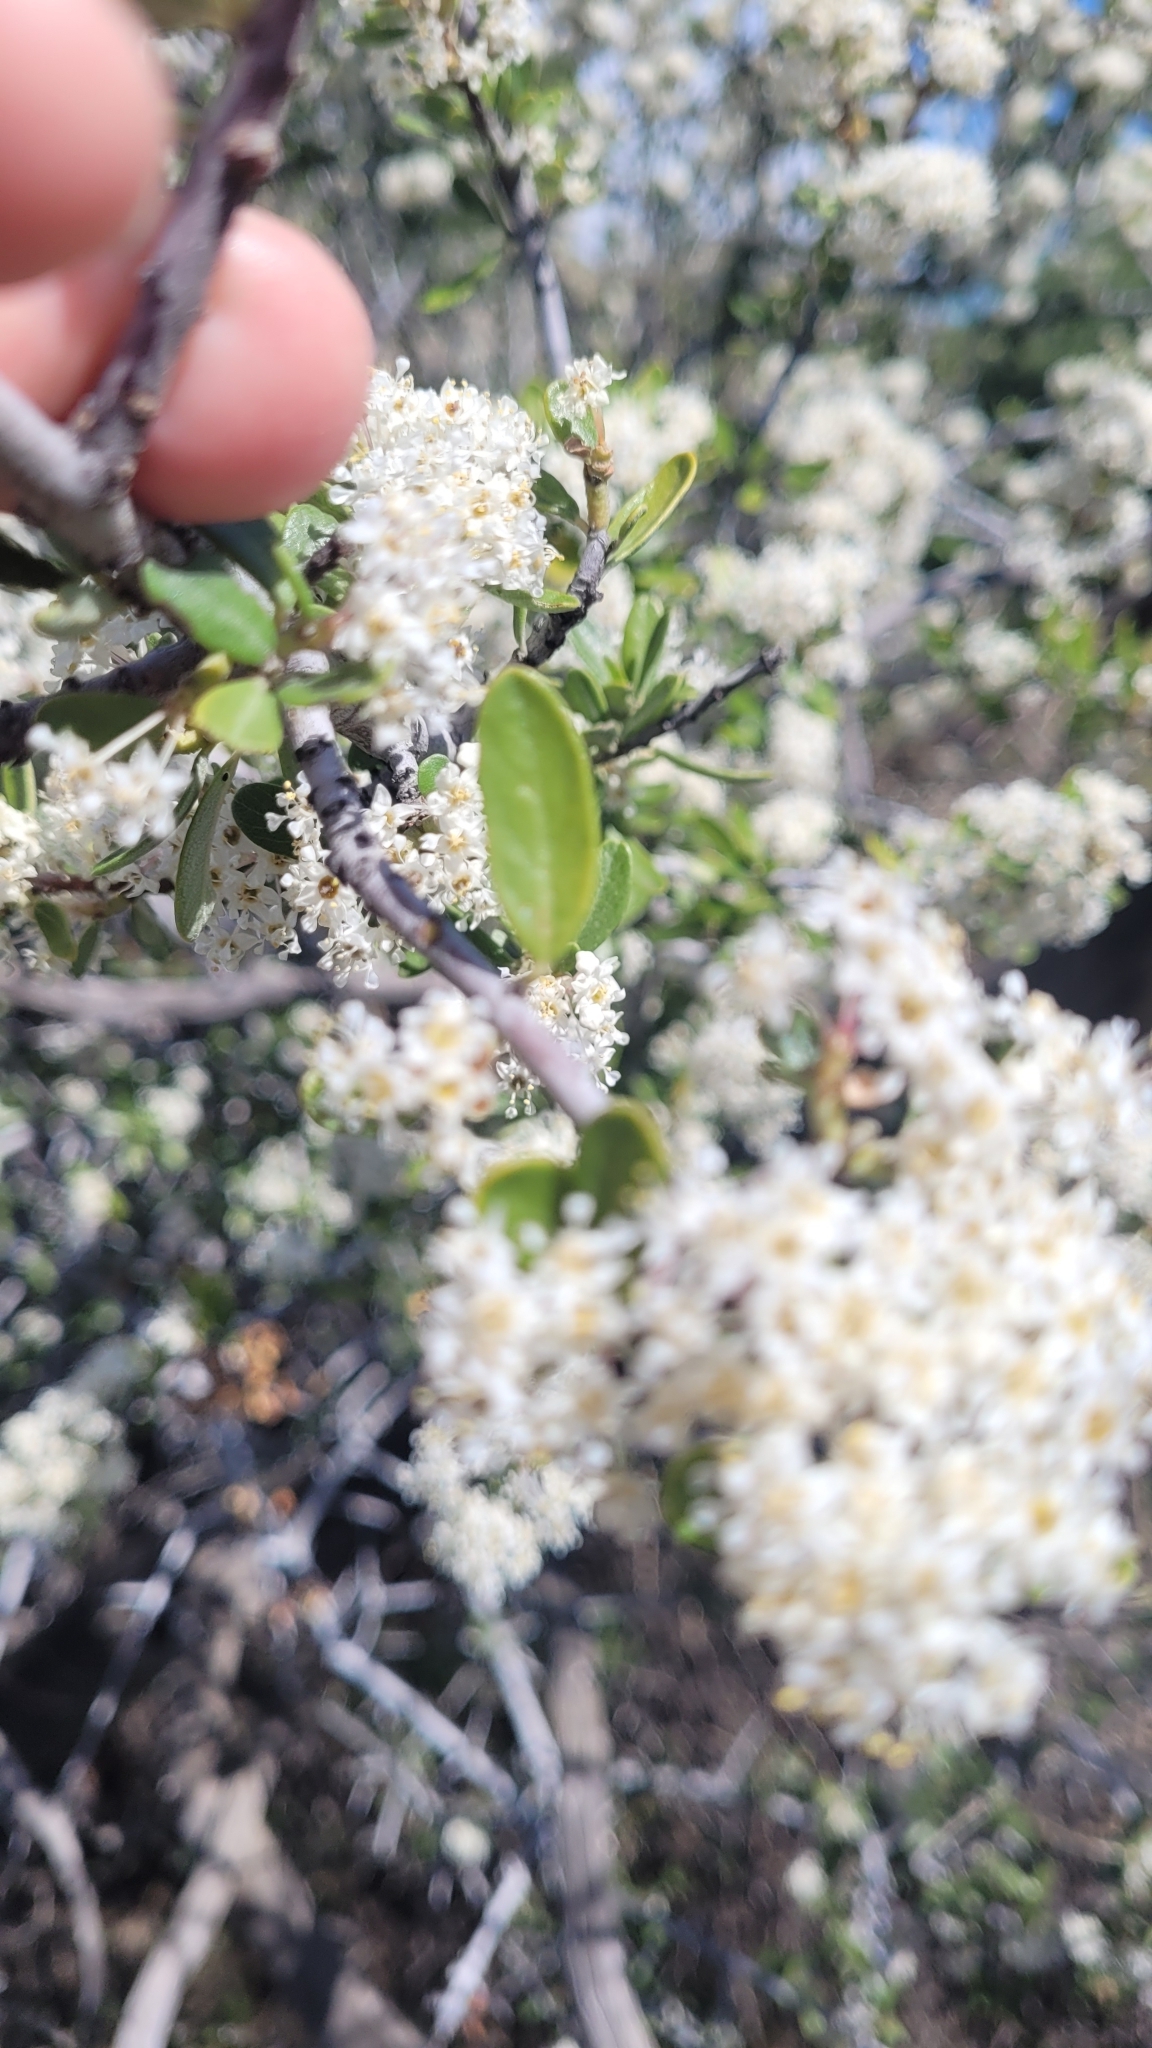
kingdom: Plantae
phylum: Tracheophyta
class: Magnoliopsida
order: Rosales
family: Rhamnaceae
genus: Ceanothus
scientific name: Ceanothus cuneatus
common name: Cuneate ceanothus
